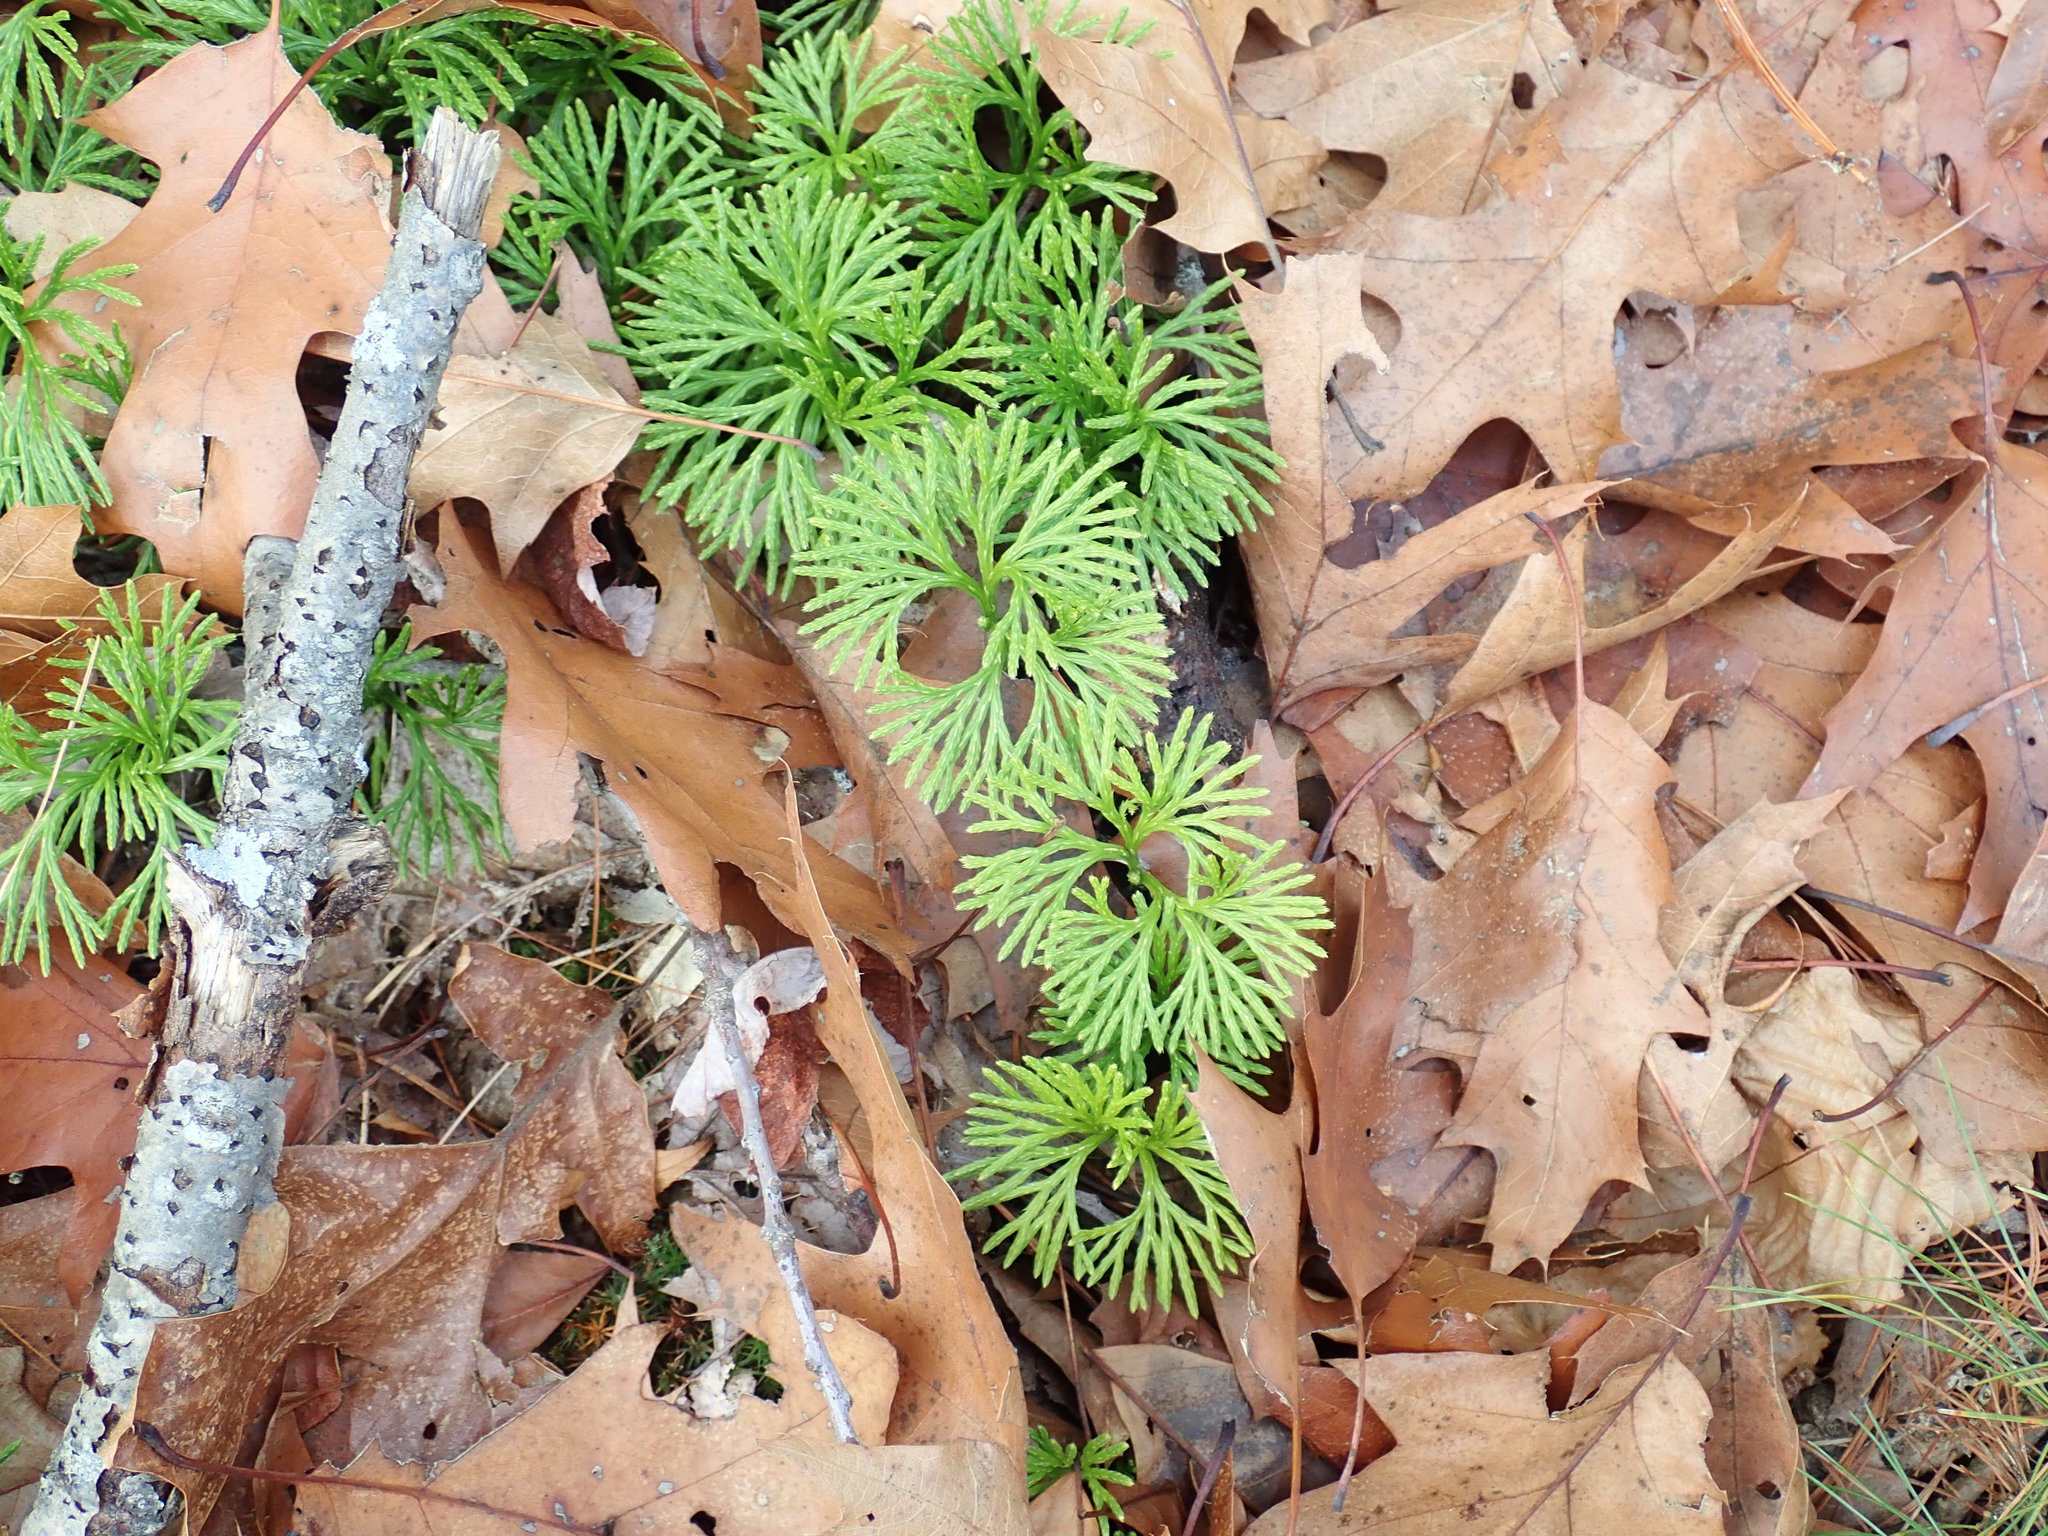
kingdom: Plantae
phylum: Tracheophyta
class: Lycopodiopsida
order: Lycopodiales
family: Lycopodiaceae
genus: Diphasiastrum
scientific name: Diphasiastrum digitatum
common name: Southern running-pine
